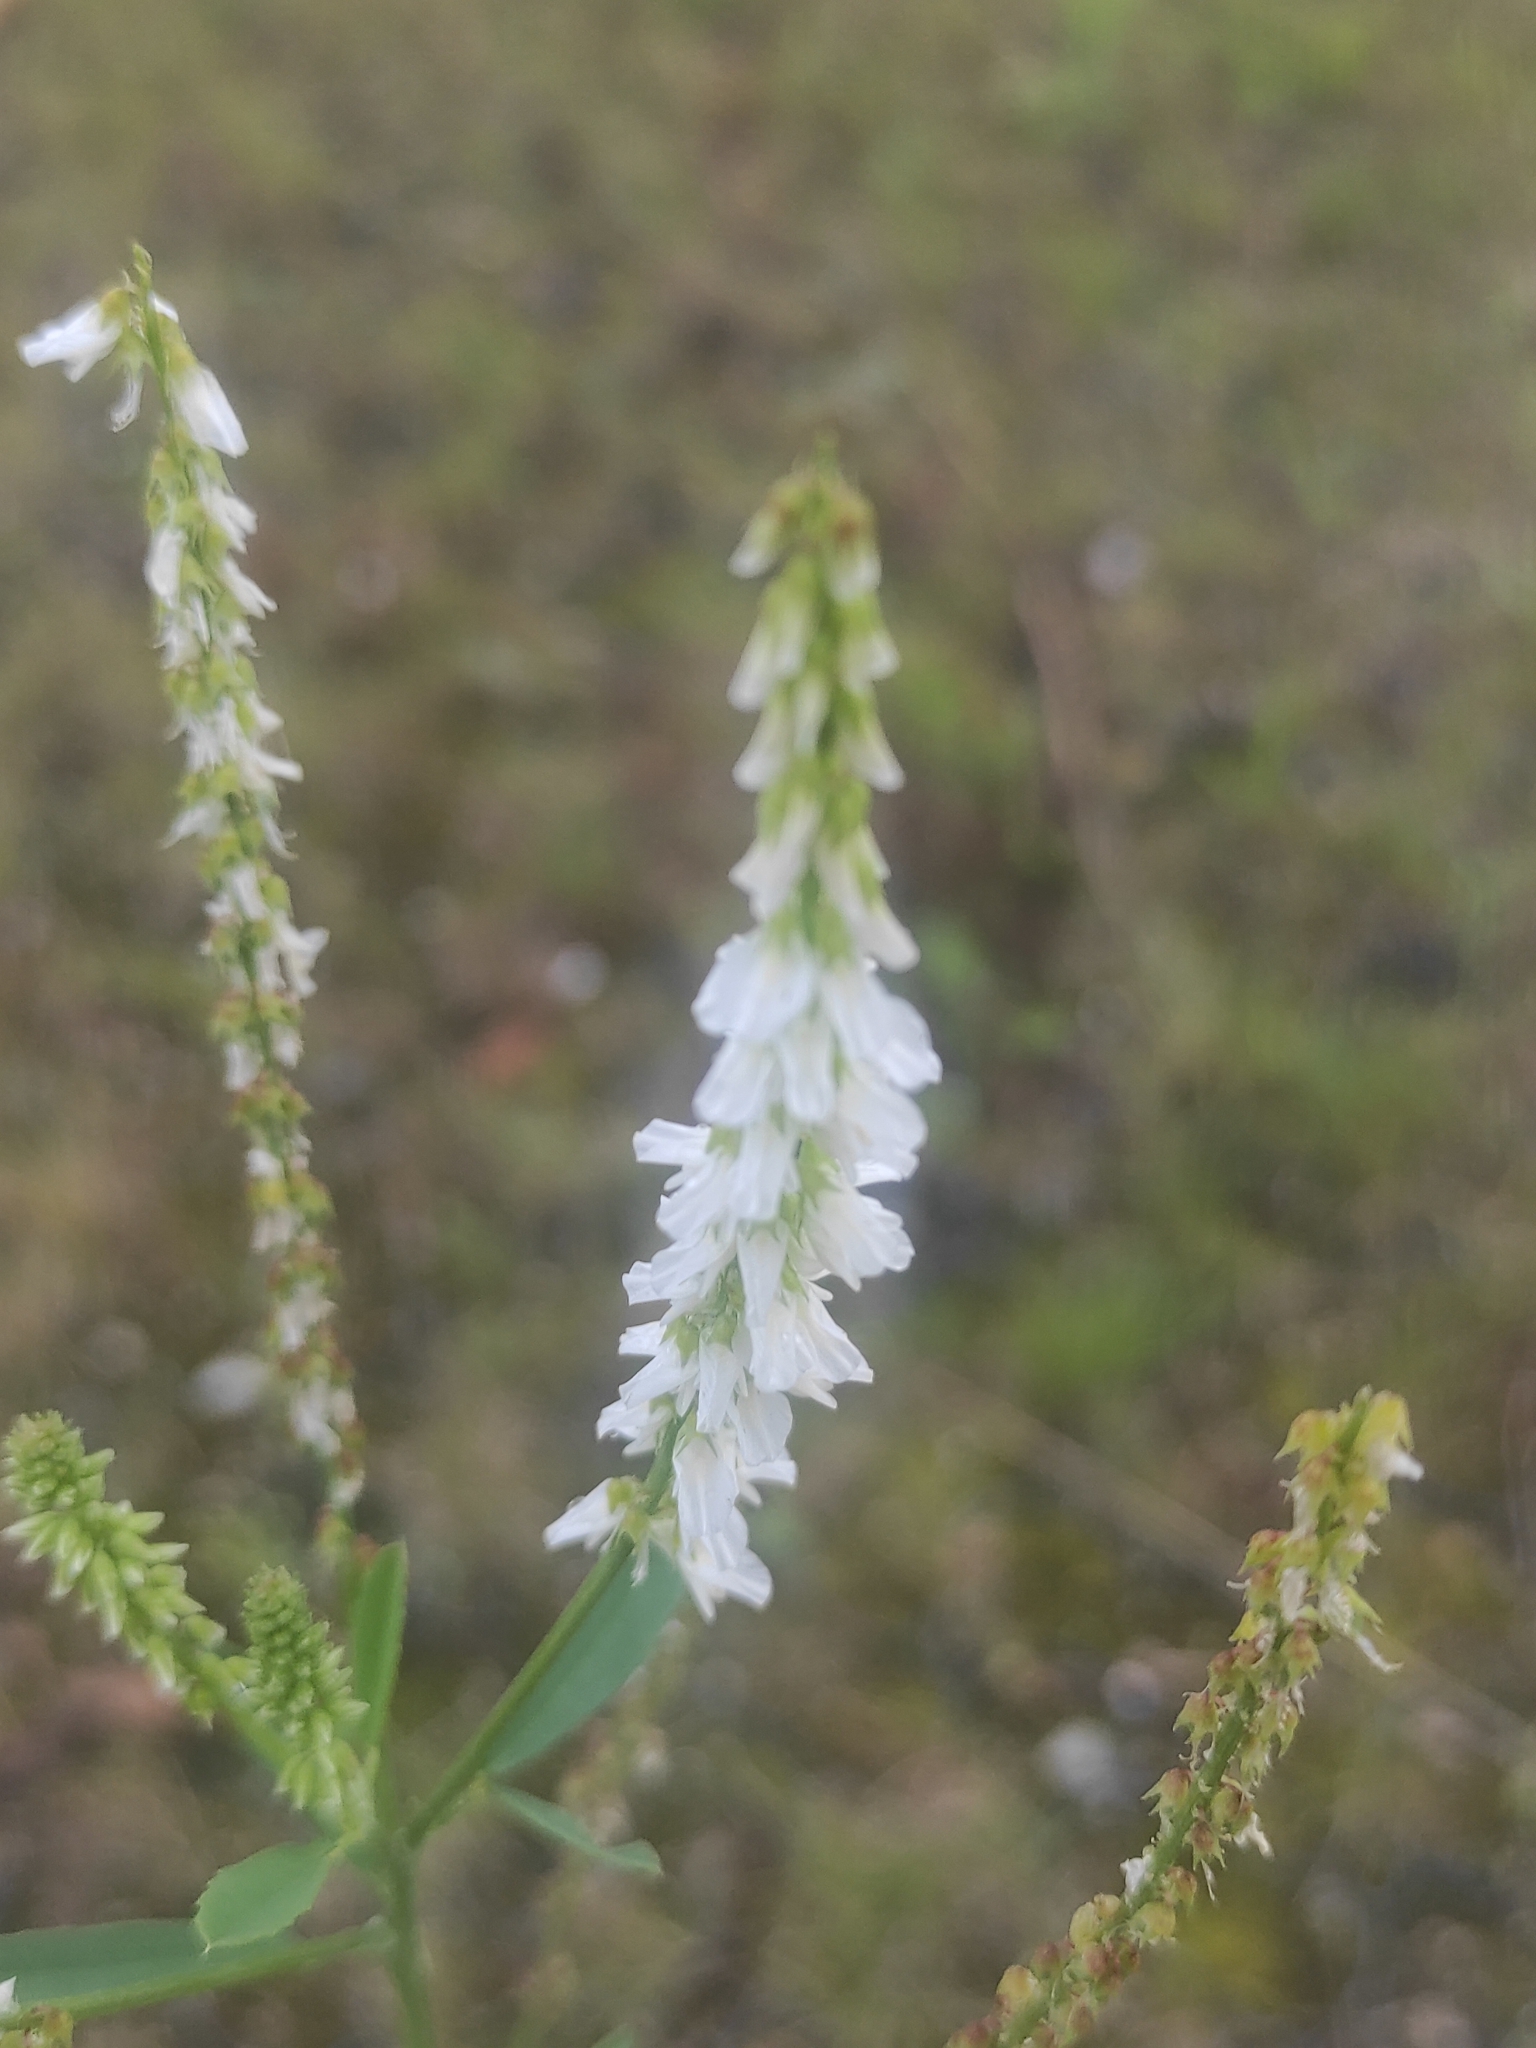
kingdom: Plantae
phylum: Tracheophyta
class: Magnoliopsida
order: Fabales
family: Fabaceae
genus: Melilotus
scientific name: Melilotus albus
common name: White melilot
